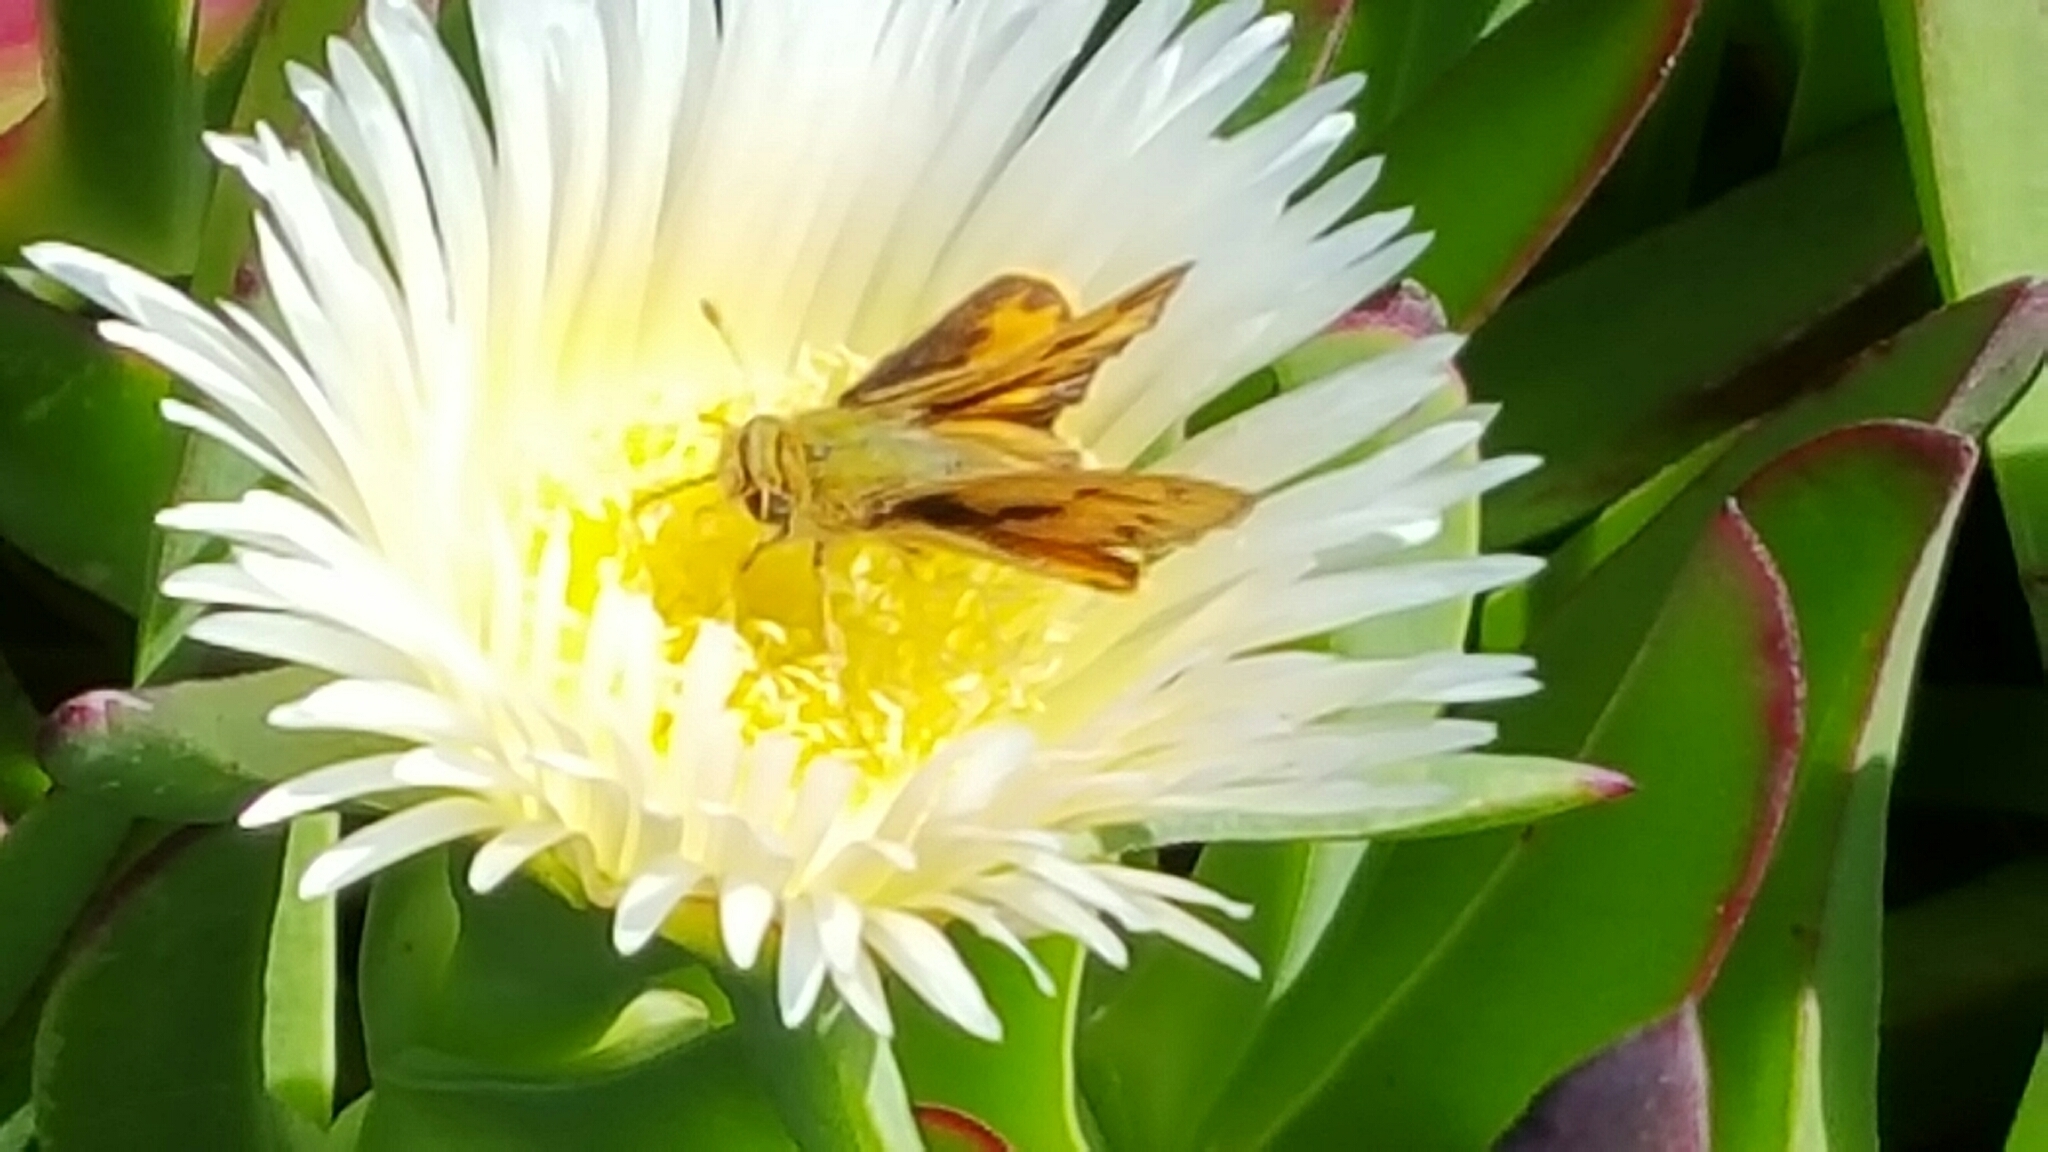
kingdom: Animalia
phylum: Arthropoda
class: Insecta
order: Lepidoptera
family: Hesperiidae
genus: Hylephila
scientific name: Hylephila phyleus
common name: Fiery skipper
